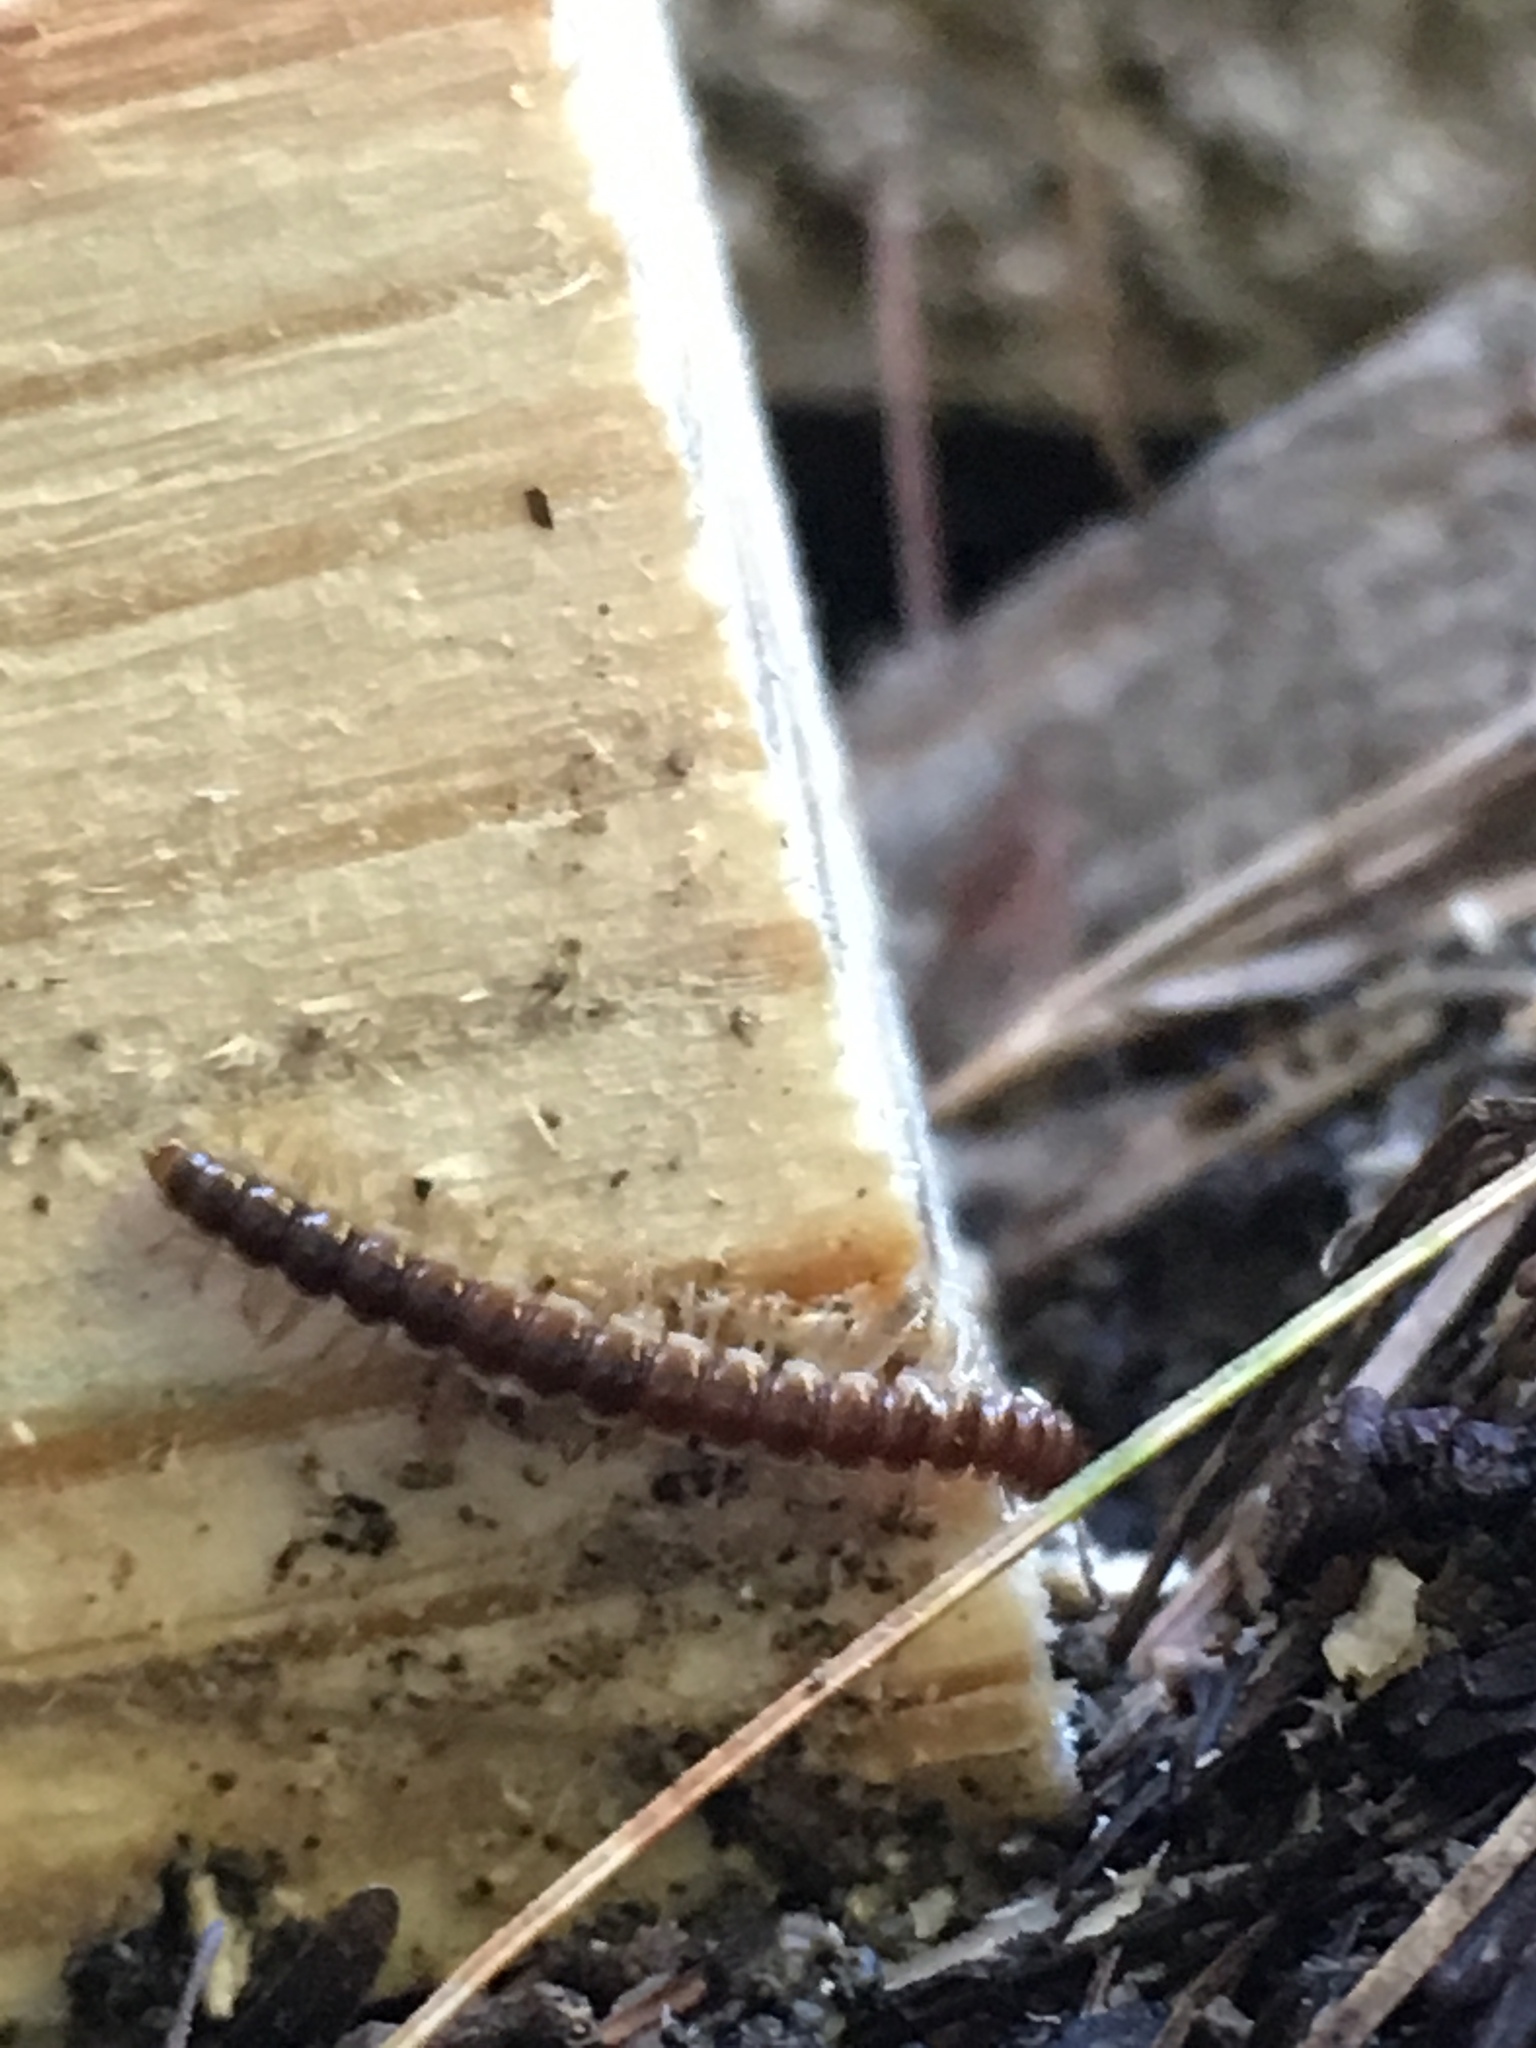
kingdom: Animalia
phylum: Arthropoda
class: Diplopoda
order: Polydesmida
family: Paradoxosomatidae
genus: Oxidus
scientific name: Oxidus gracilis
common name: Greenhouse millipede
